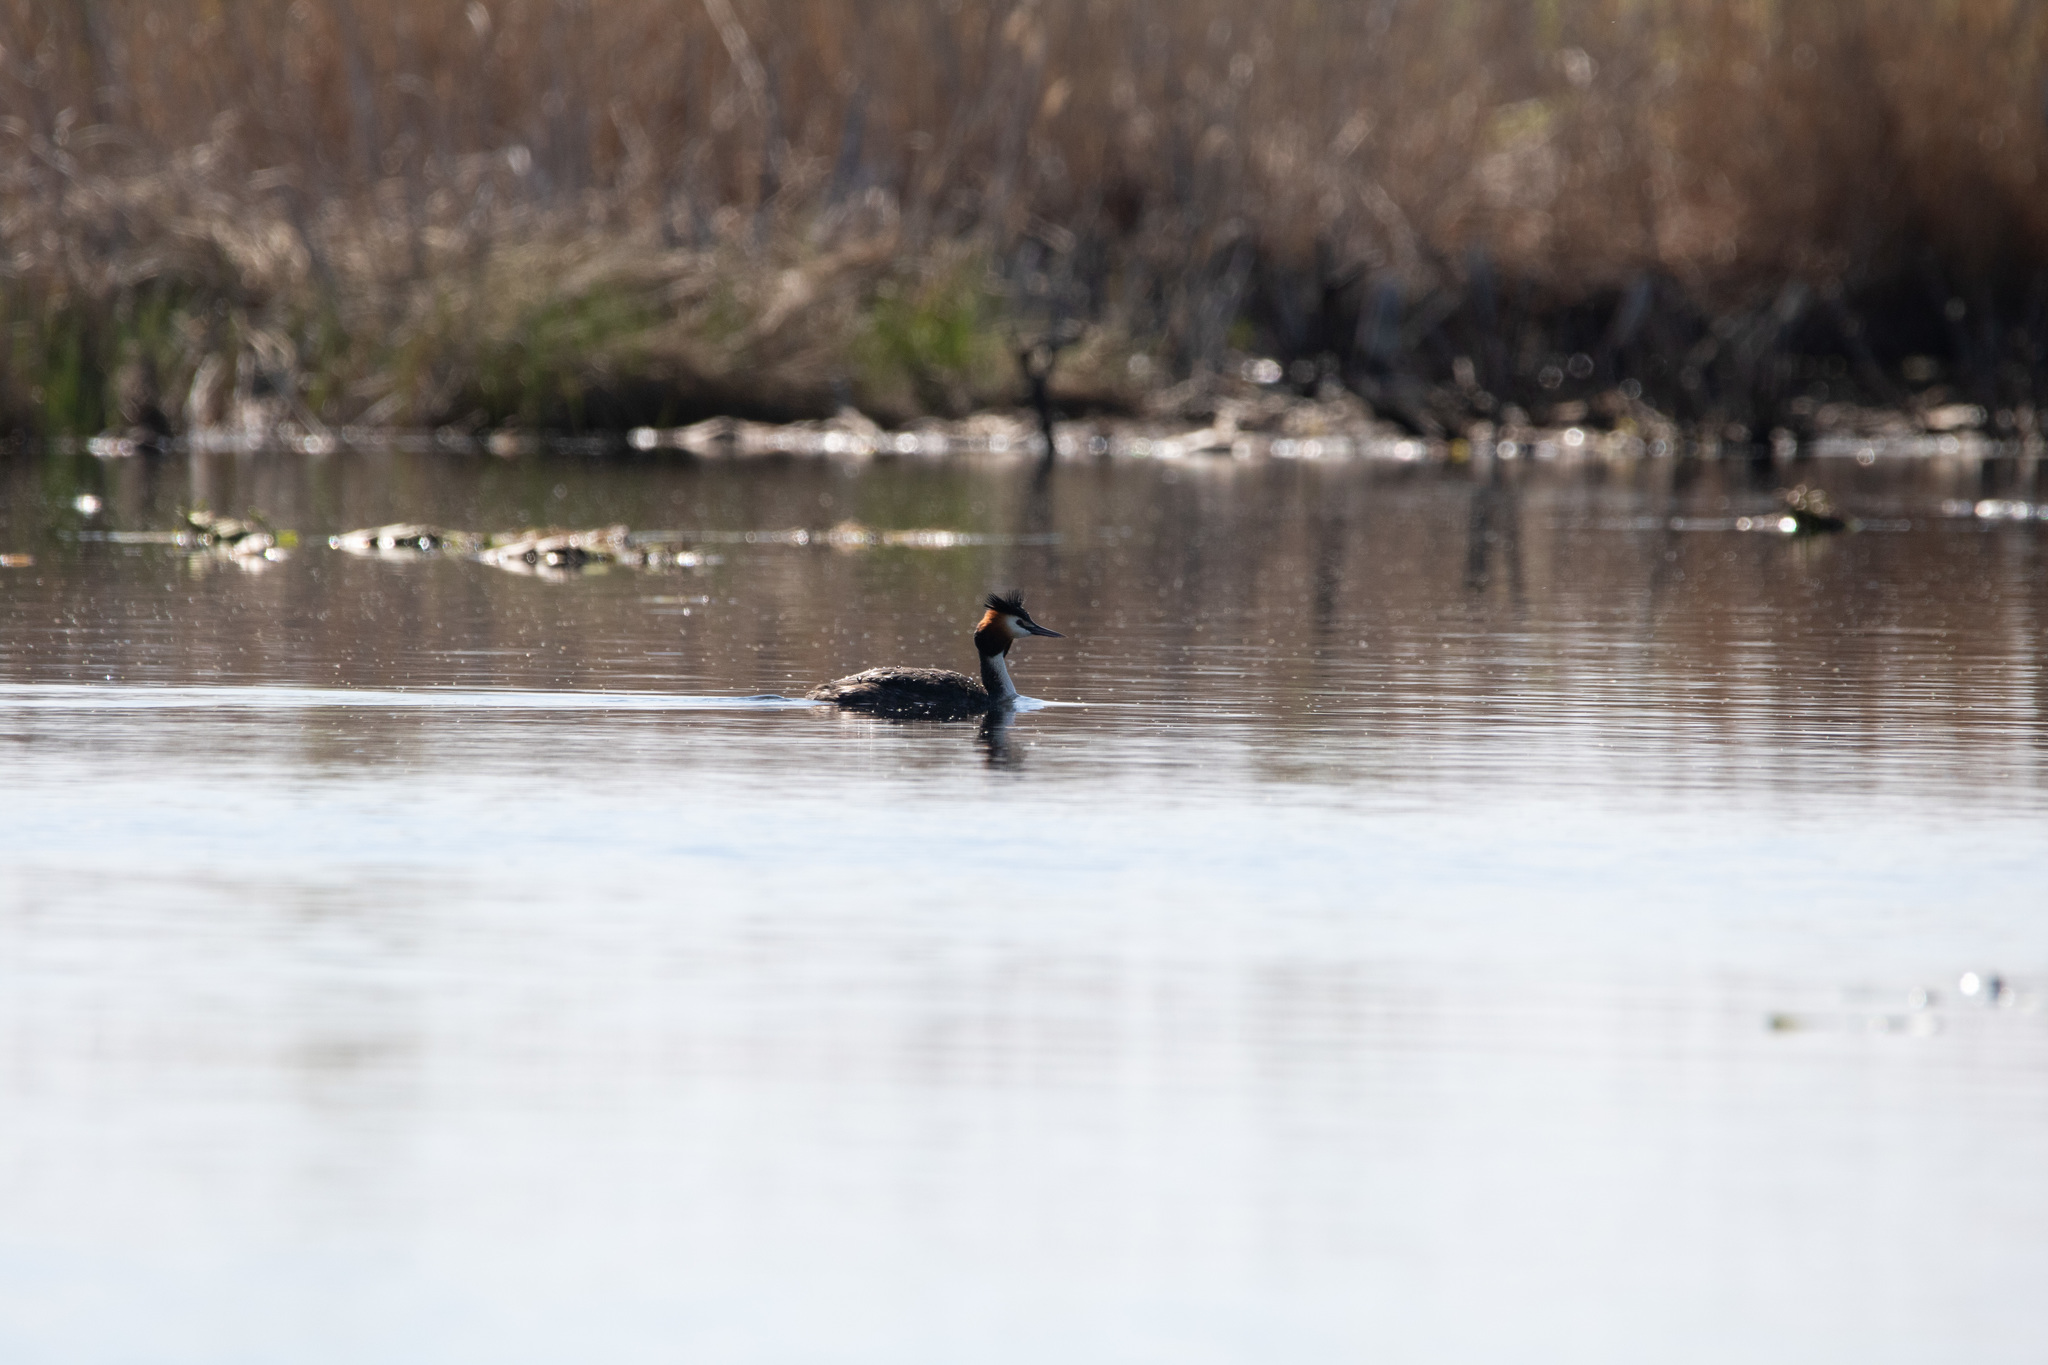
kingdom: Animalia
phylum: Chordata
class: Aves
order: Podicipediformes
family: Podicipedidae
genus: Podiceps
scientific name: Podiceps cristatus
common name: Great crested grebe
